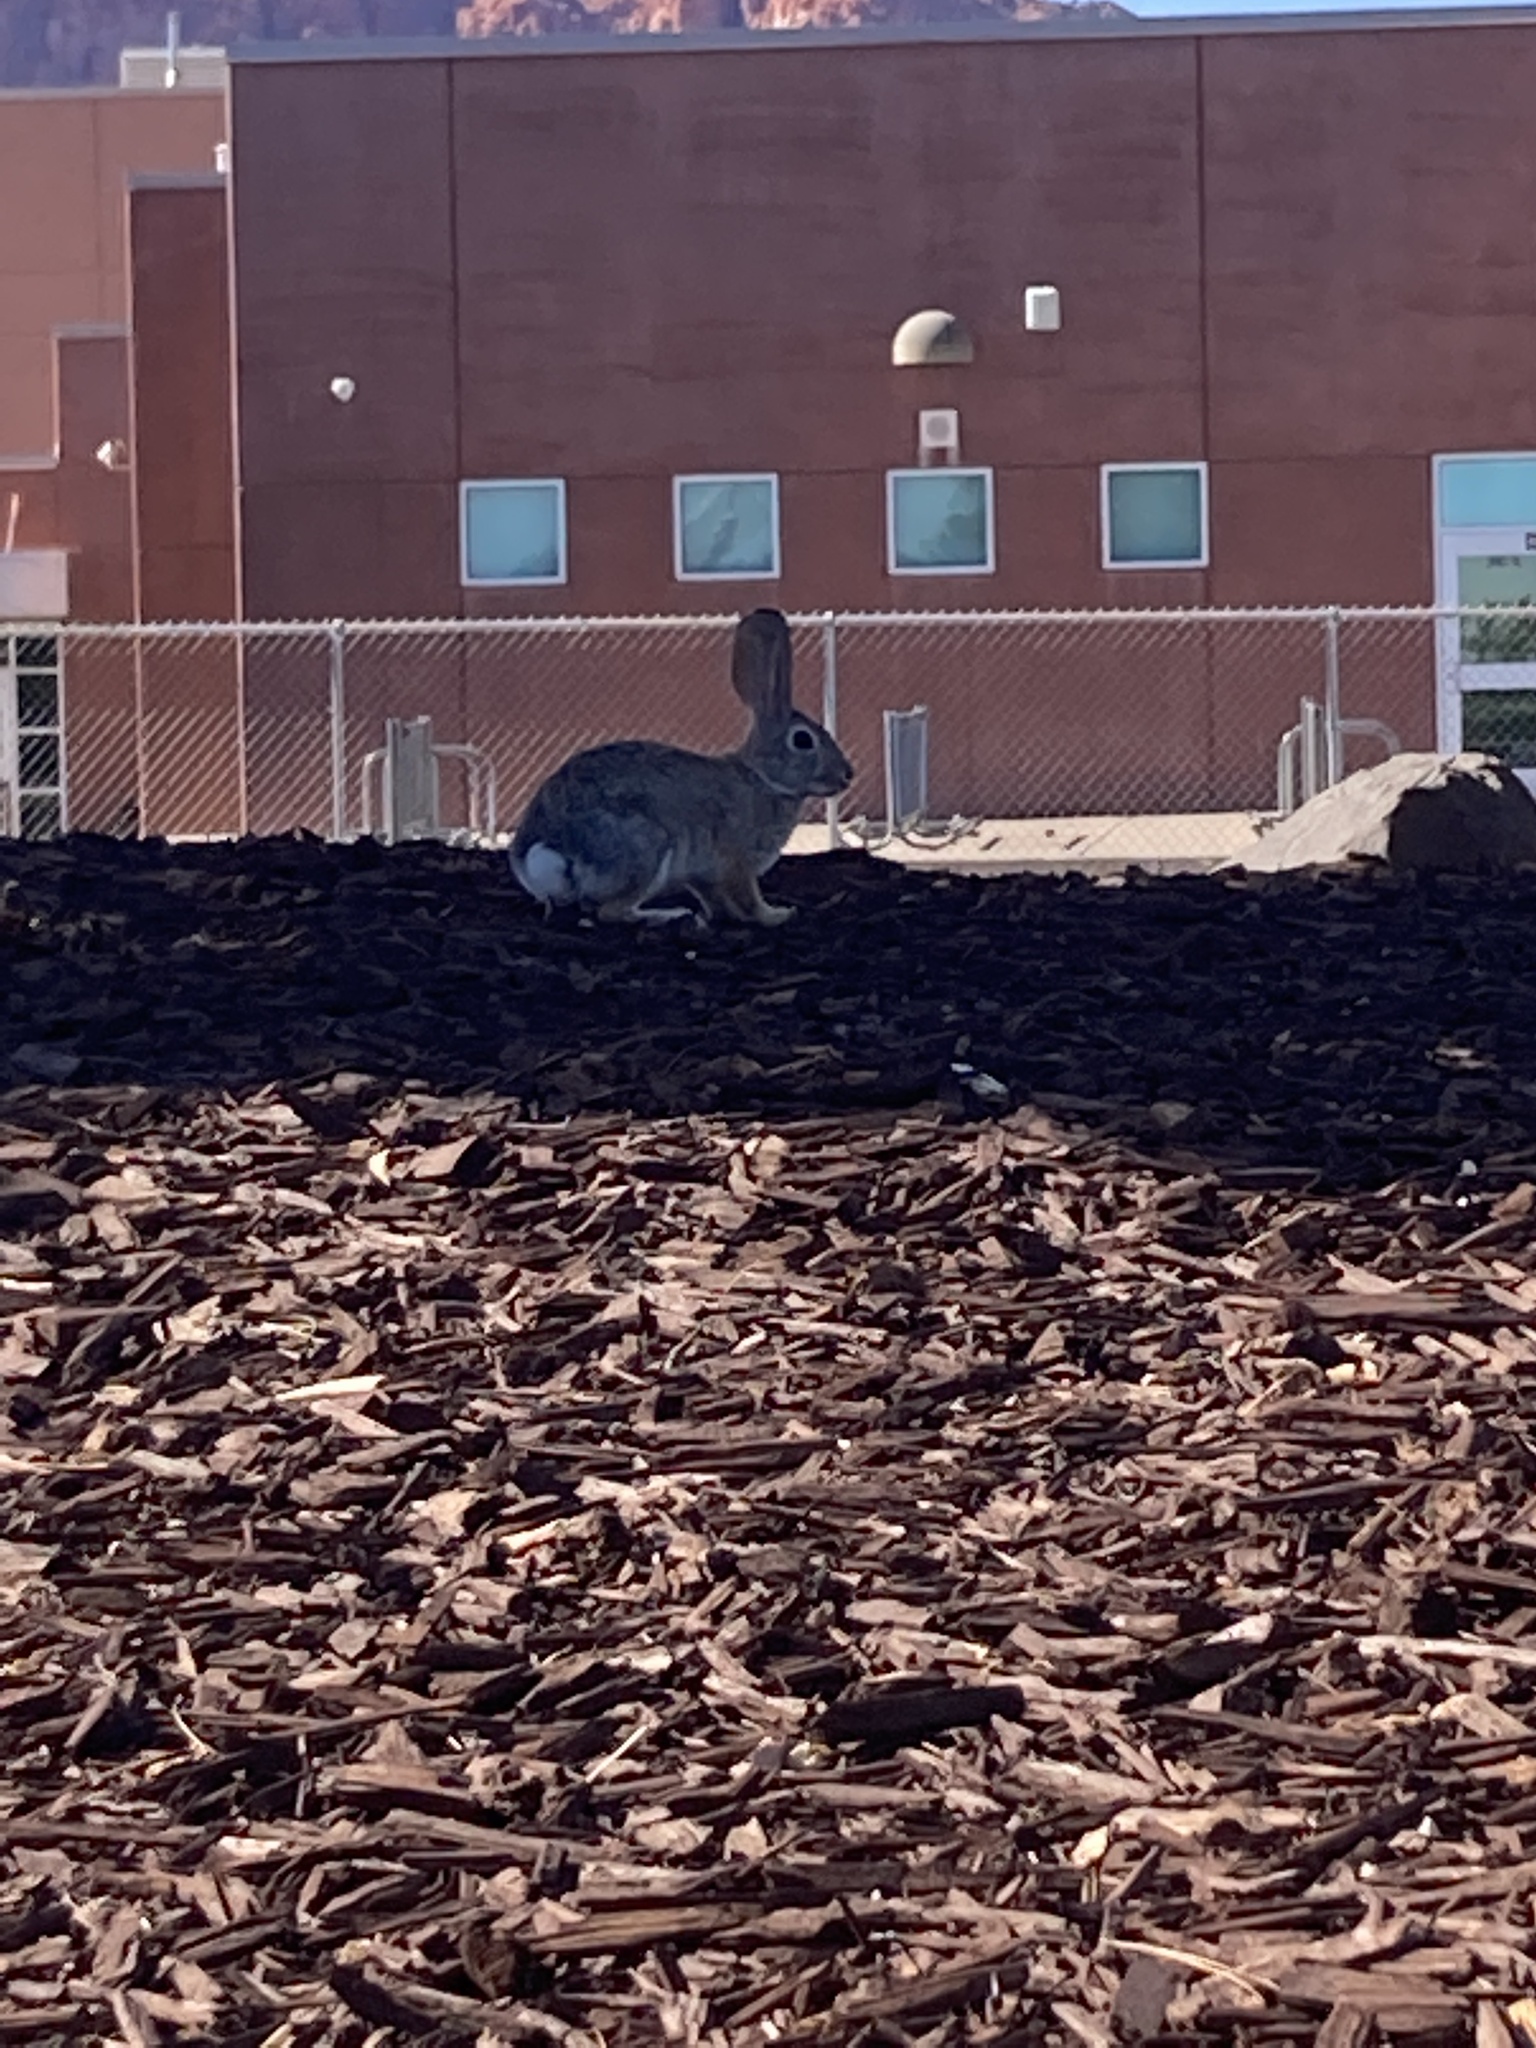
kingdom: Animalia
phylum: Chordata
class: Mammalia
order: Lagomorpha
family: Leporidae
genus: Sylvilagus
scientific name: Sylvilagus audubonii
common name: Desert cottontail
